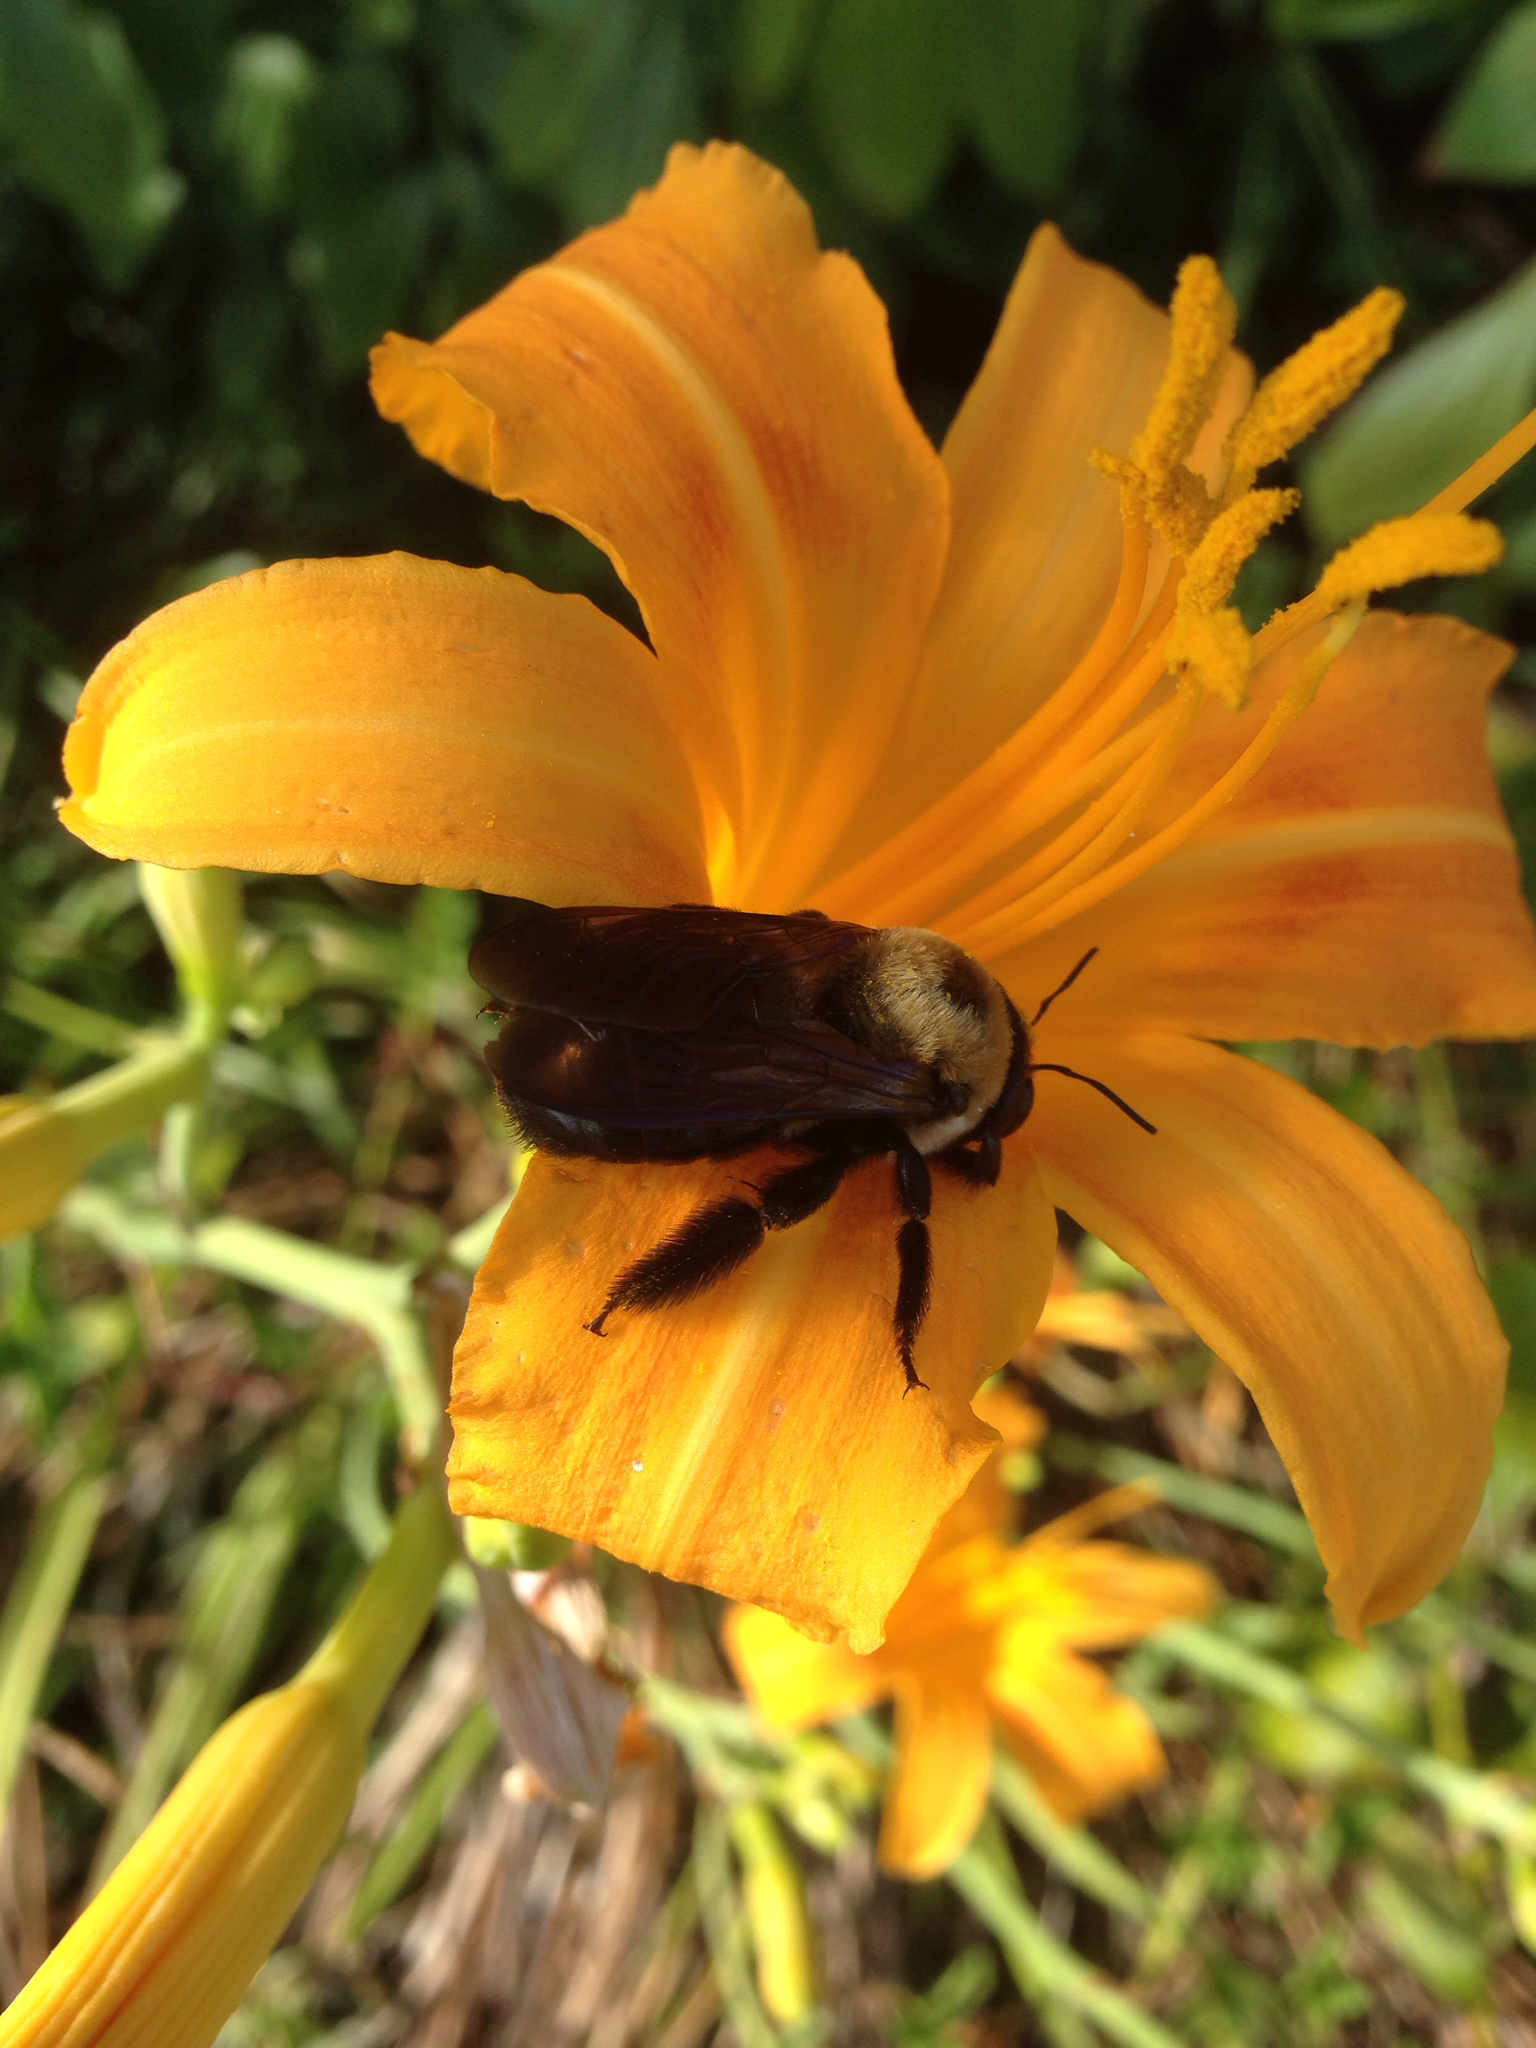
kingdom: Animalia
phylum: Arthropoda
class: Insecta
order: Hymenoptera
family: Apidae
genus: Xylocopa
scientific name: Xylocopa virginica
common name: Carpenter bee
